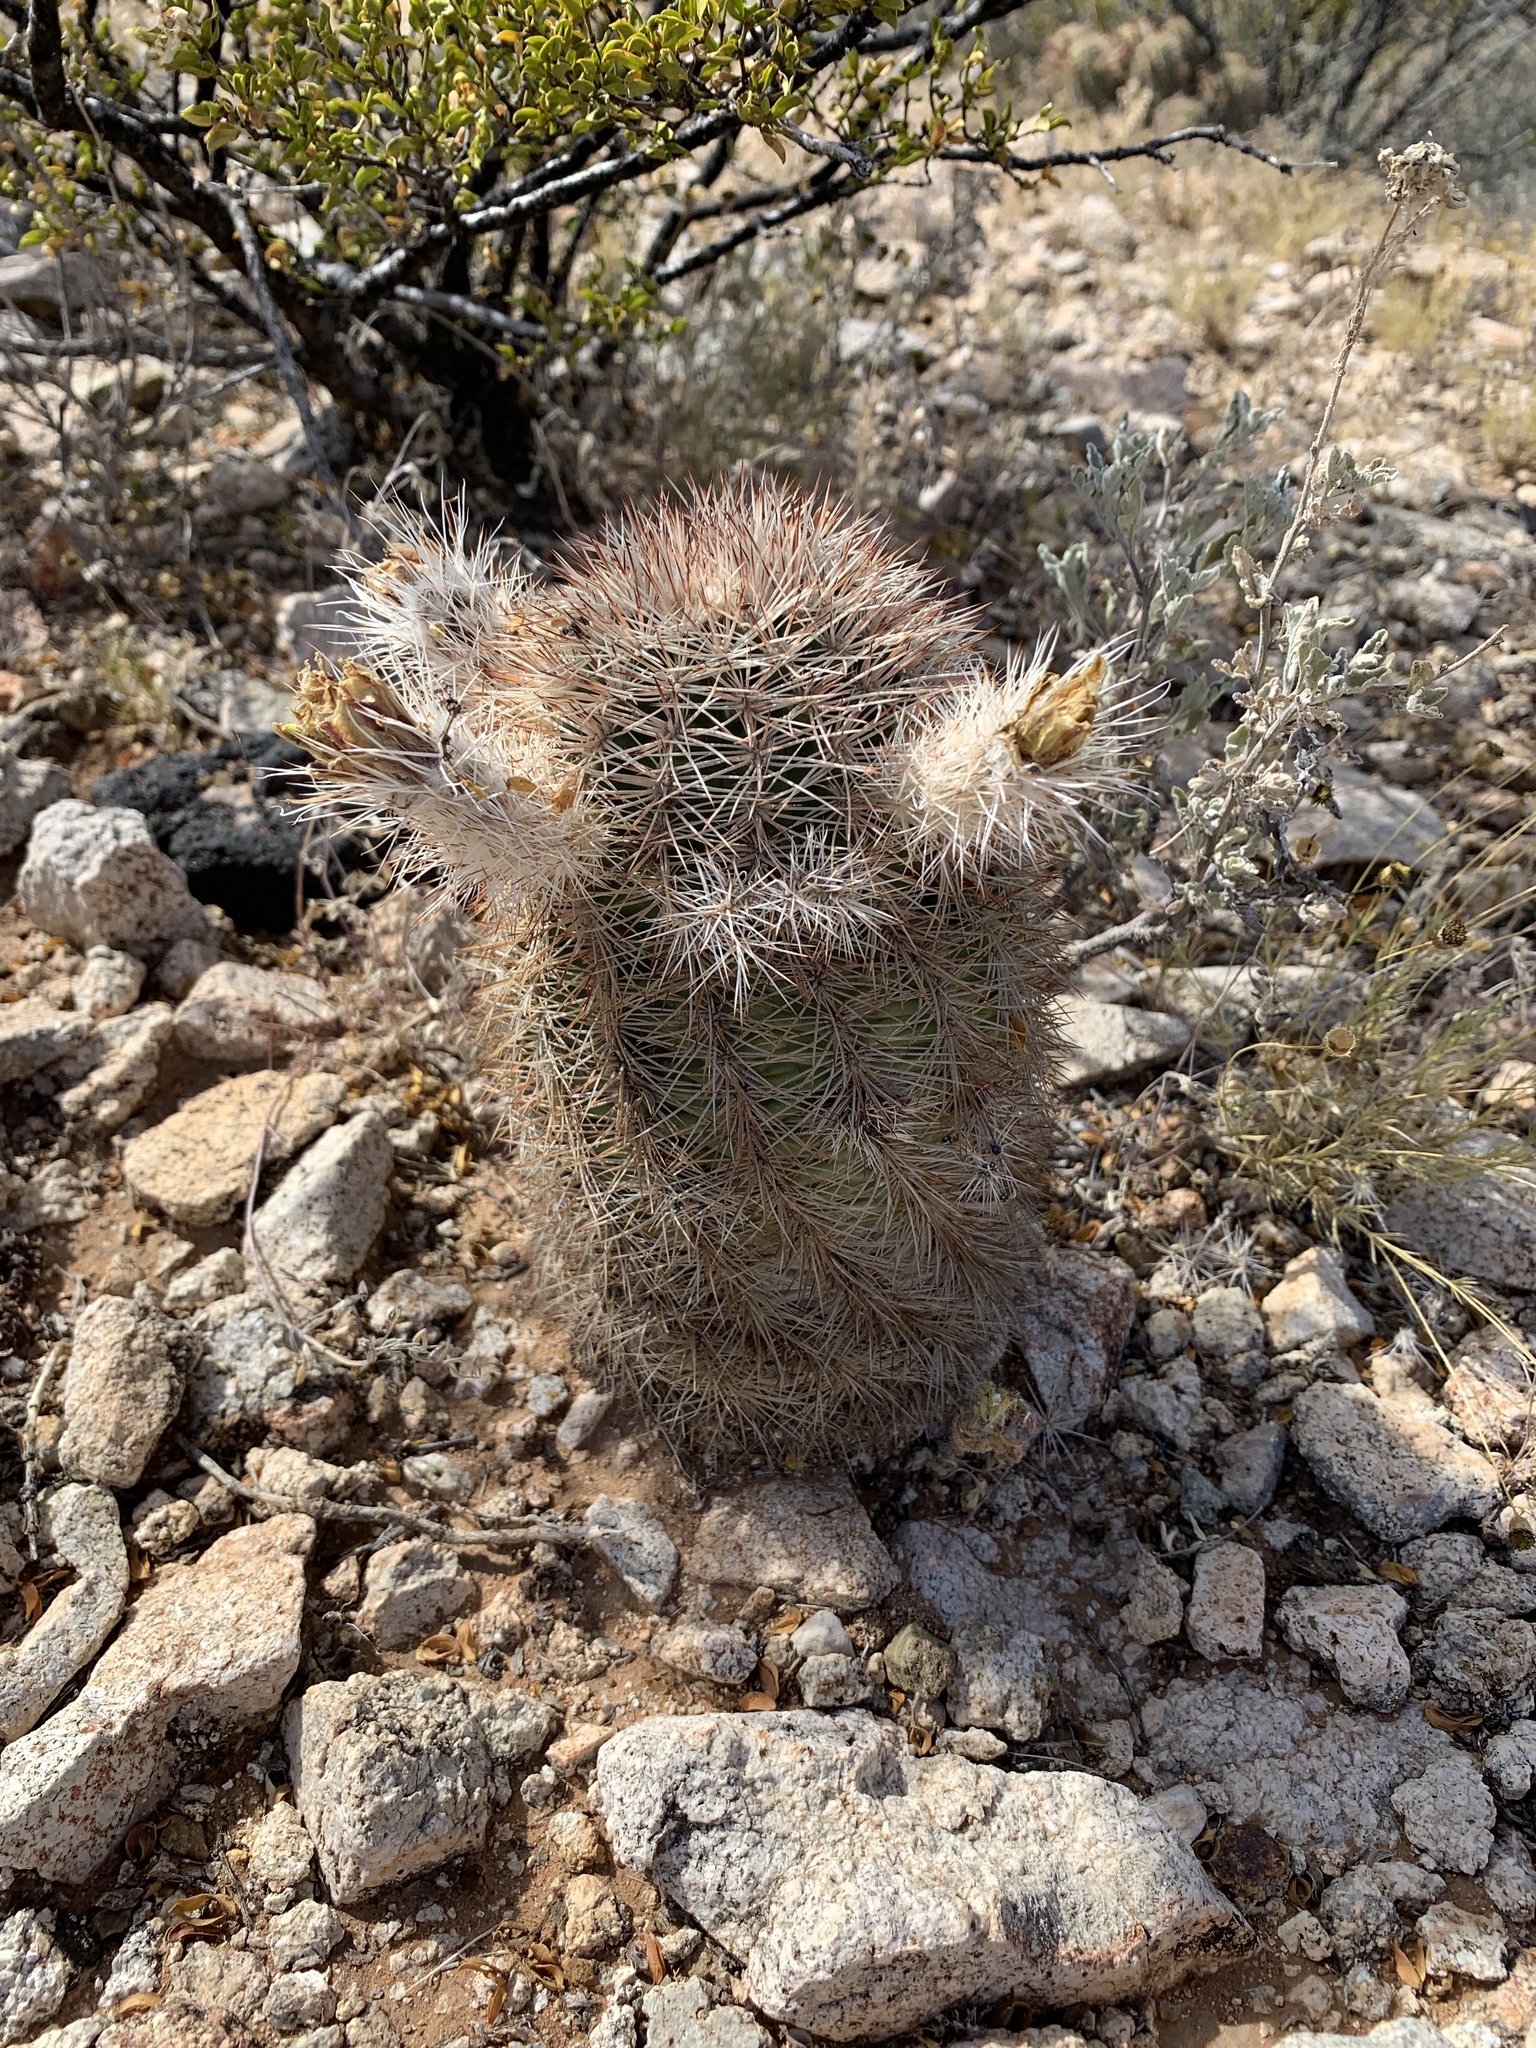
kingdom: Plantae
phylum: Tracheophyta
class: Magnoliopsida
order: Caryophyllales
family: Cactaceae
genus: Echinocereus
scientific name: Echinocereus dasyacanthus
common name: Spiny hedgehog cactus
